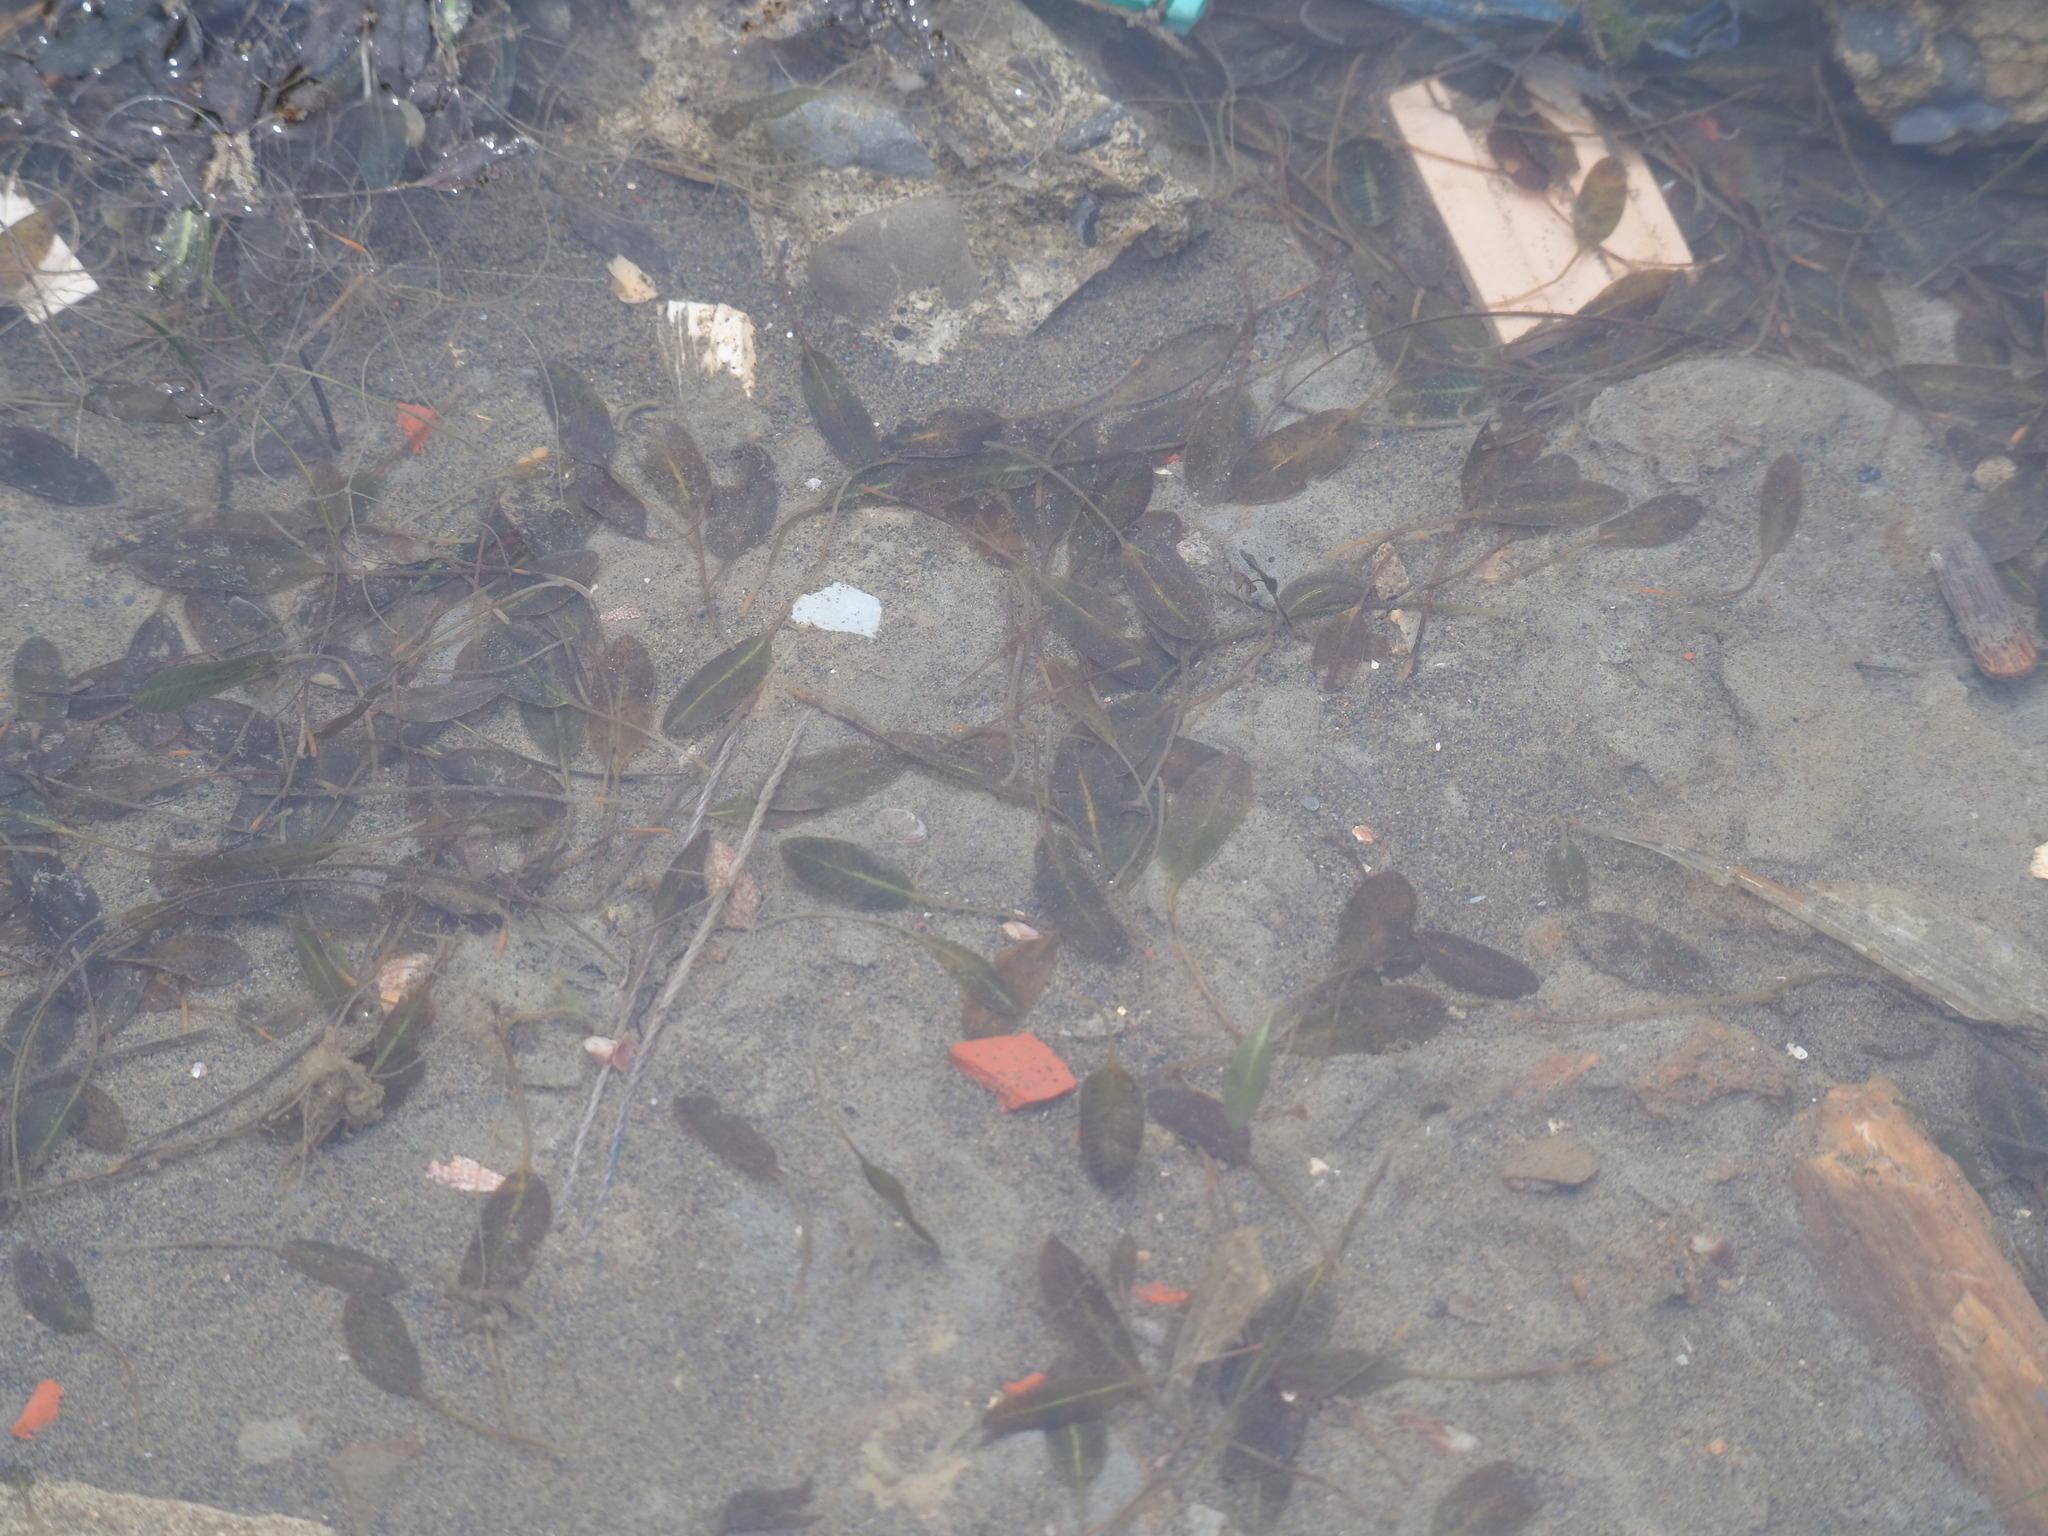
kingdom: Plantae
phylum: Tracheophyta
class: Liliopsida
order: Alismatales
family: Hydrocharitaceae
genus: Halophila
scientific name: Halophila ovalis
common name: Species code: ho
